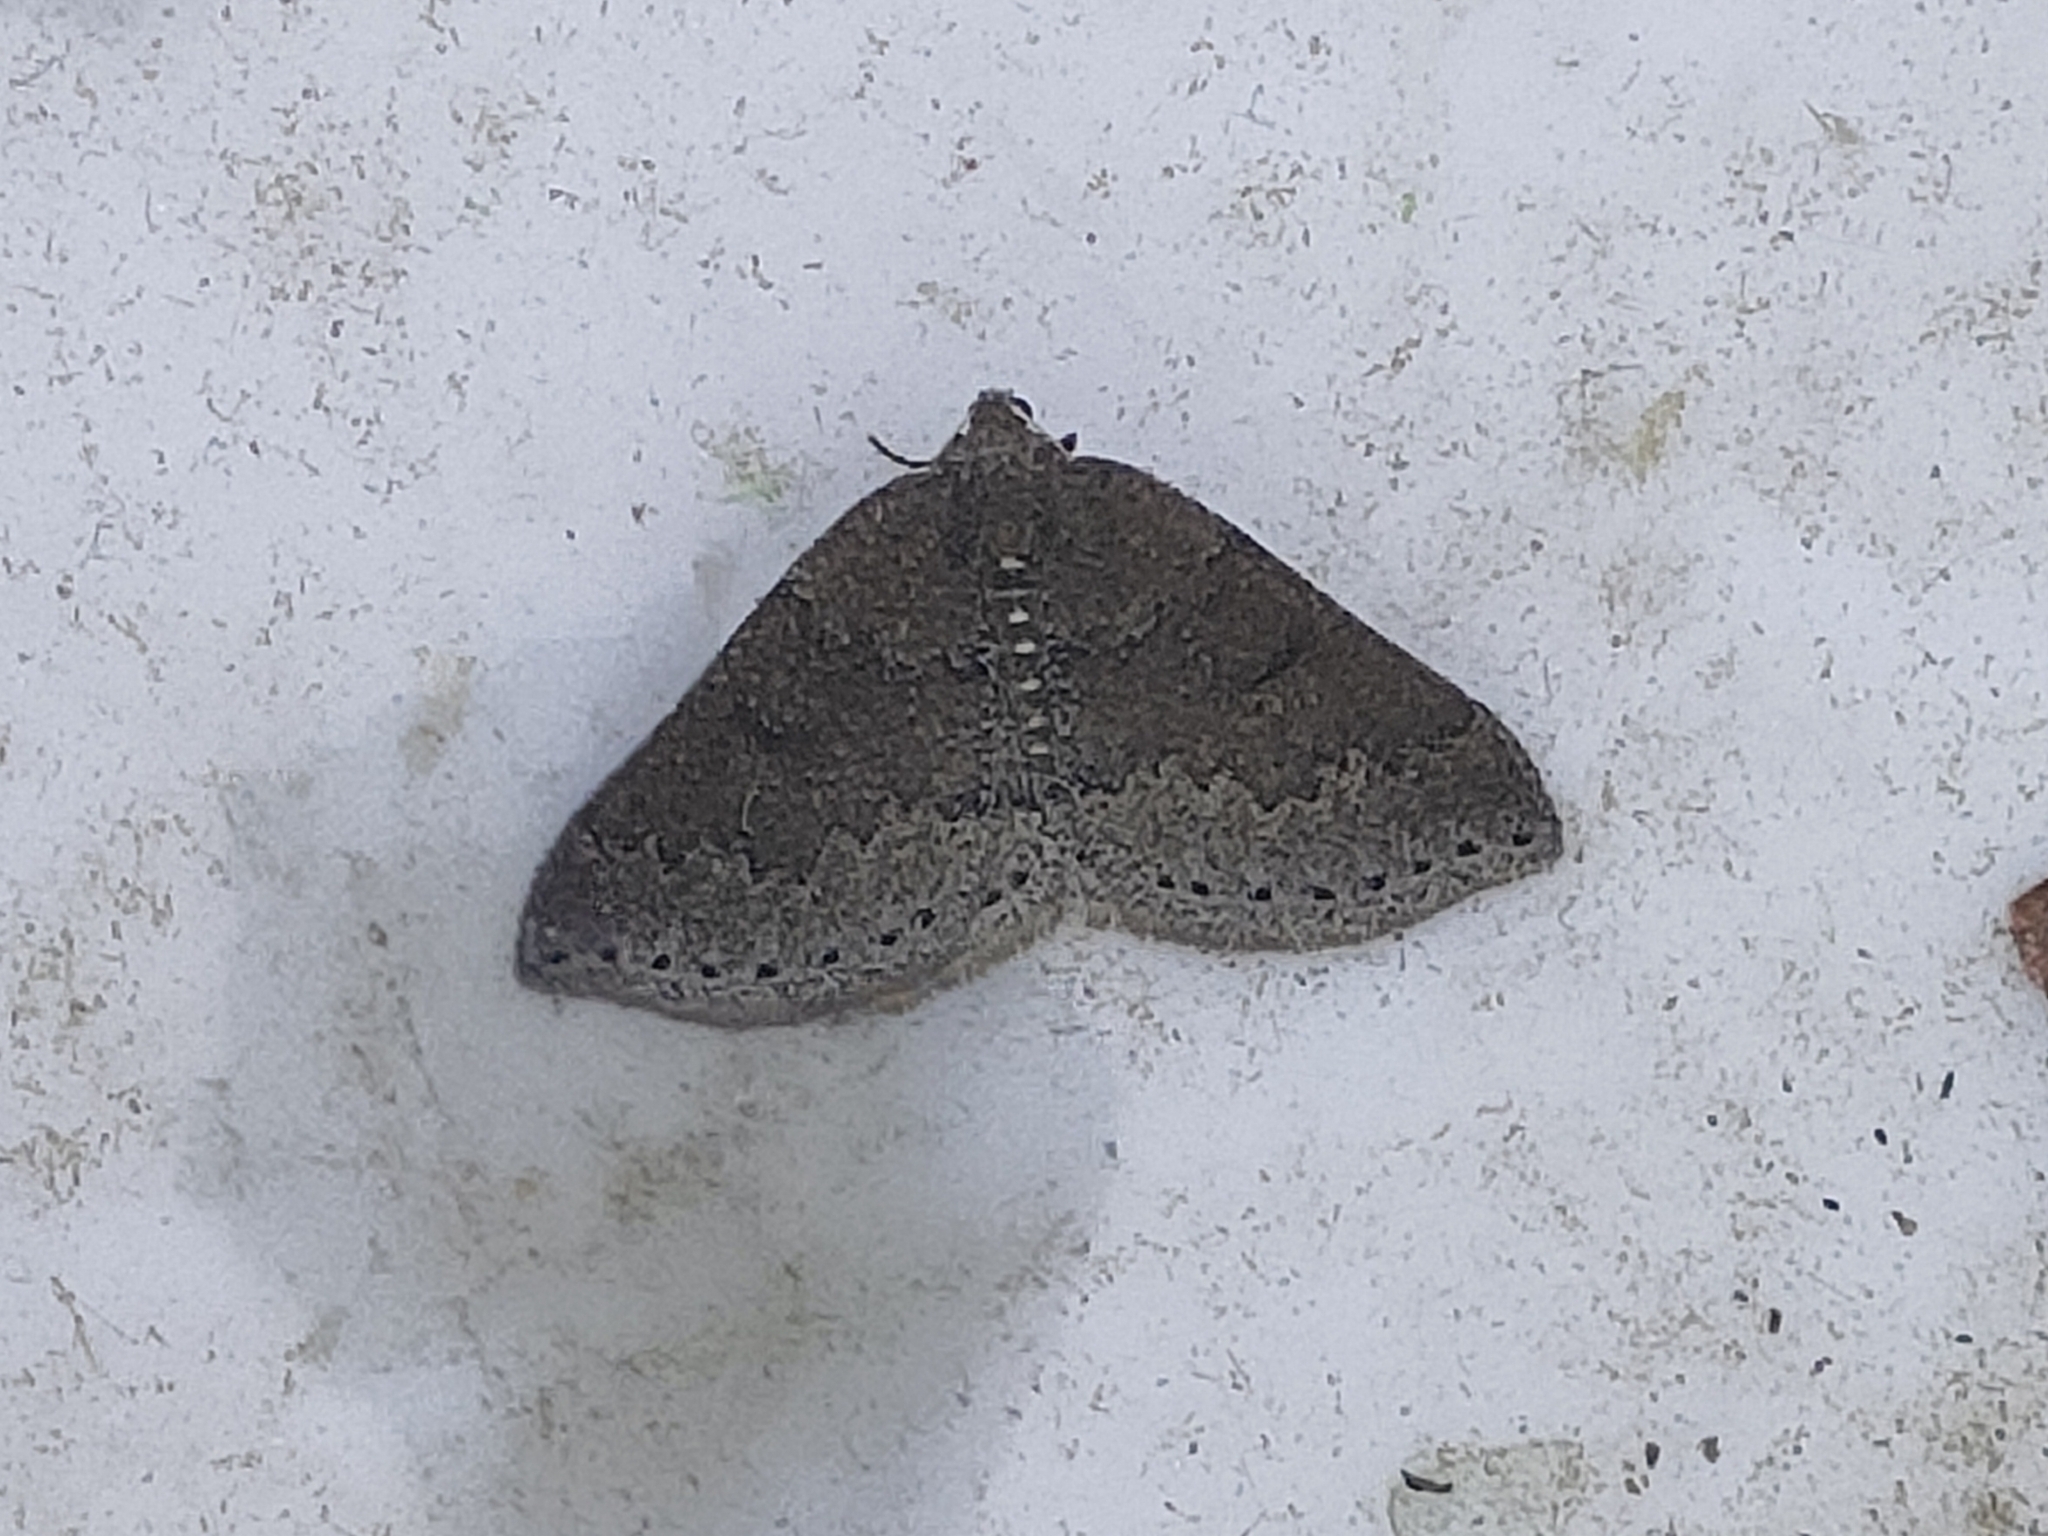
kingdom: Animalia
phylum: Arthropoda
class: Insecta
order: Lepidoptera
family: Geometridae
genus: Aleucis
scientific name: Aleucis distinctata
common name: Sloe carpet
